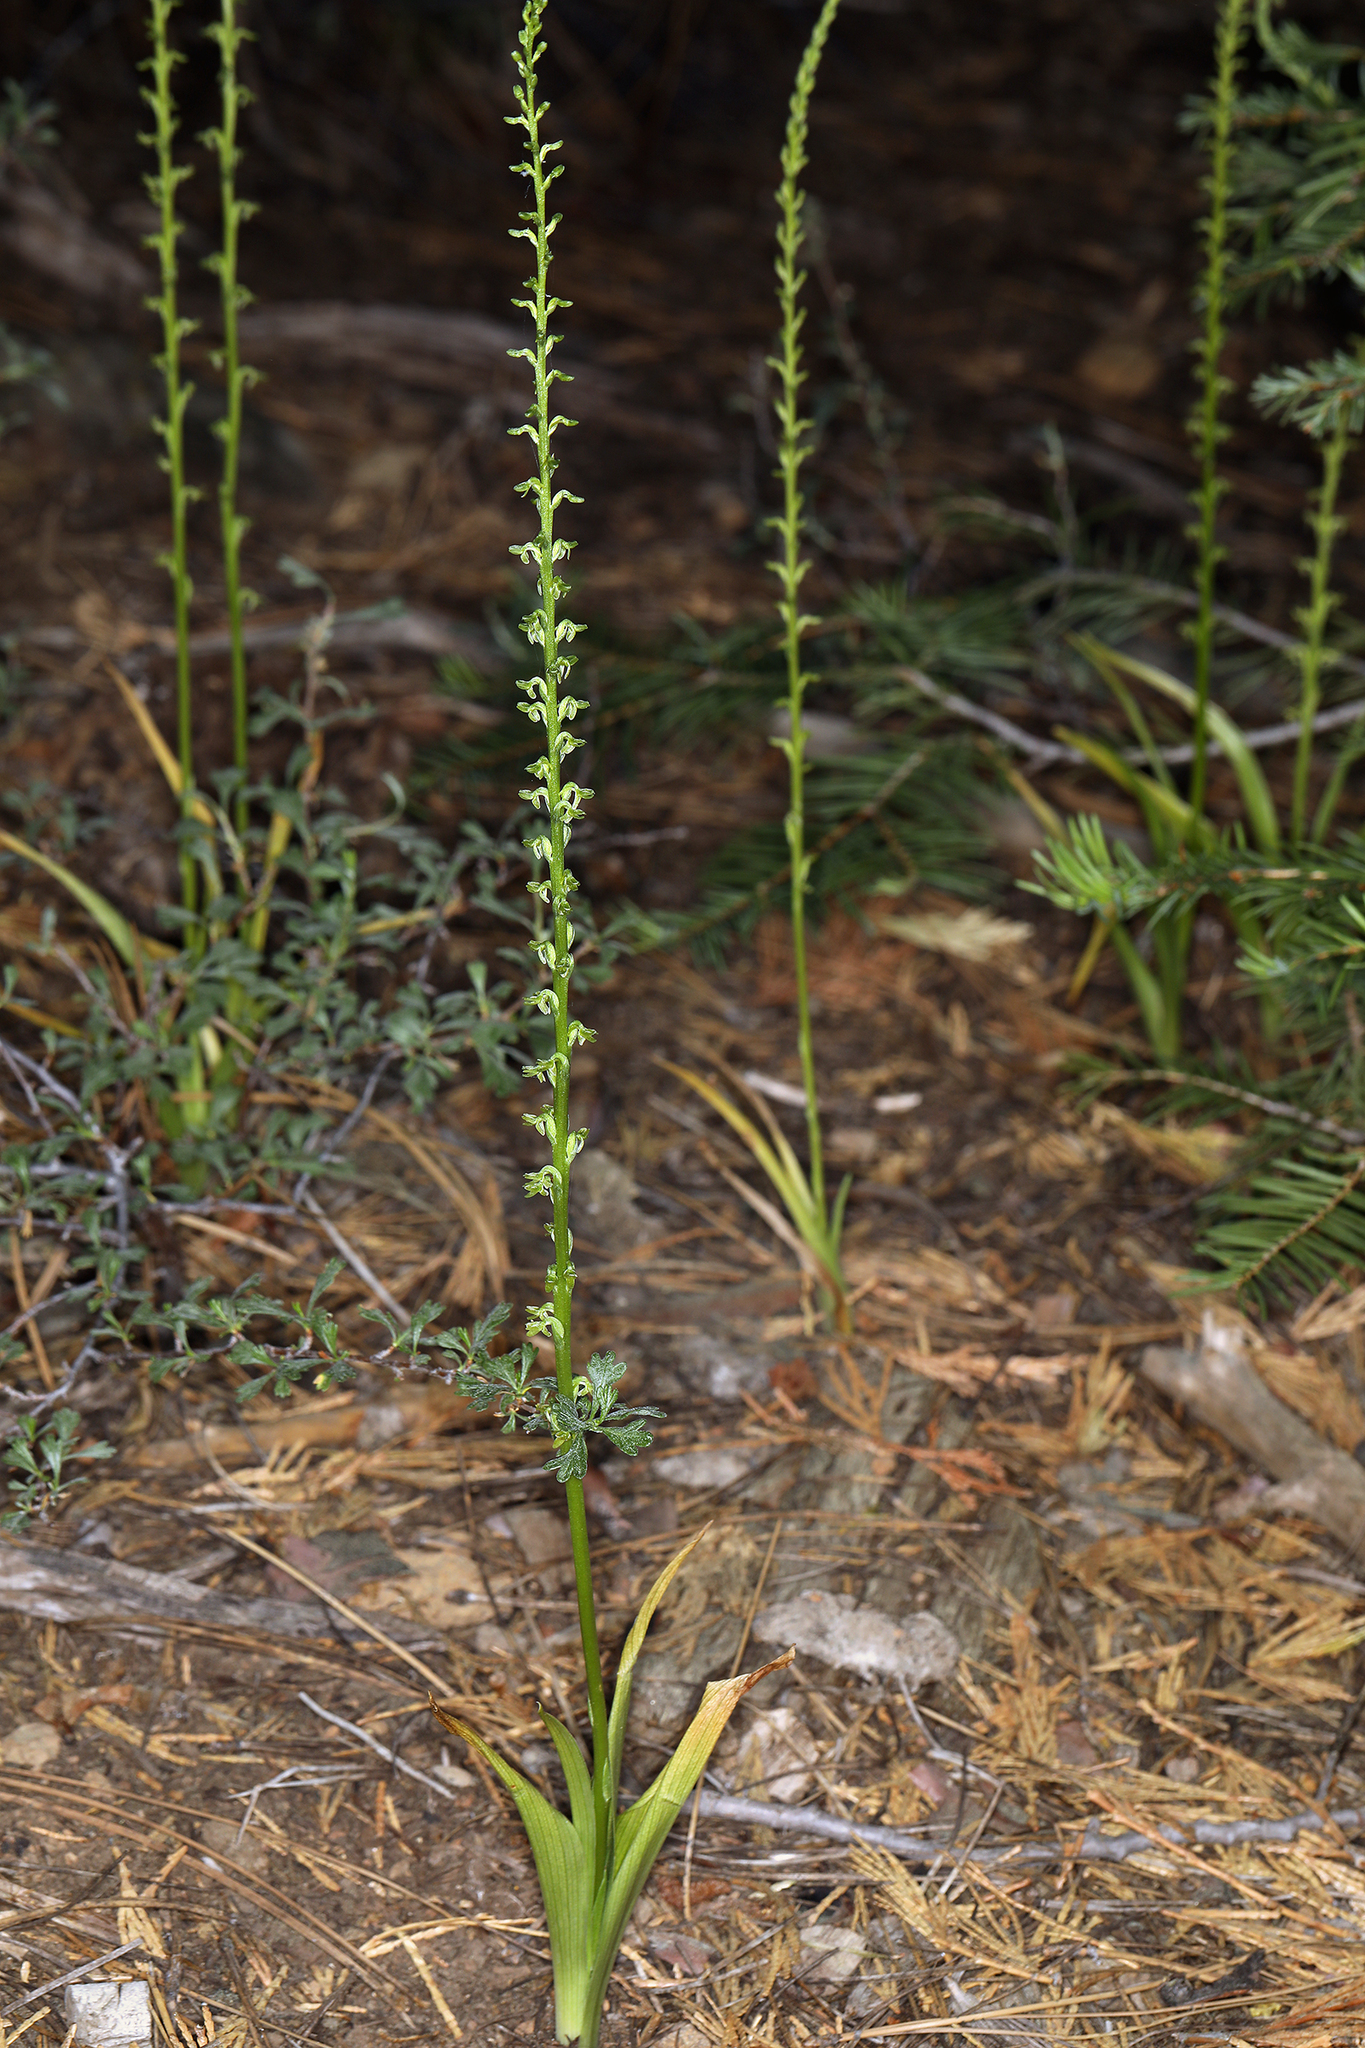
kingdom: Plantae
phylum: Tracheophyta
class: Liliopsida
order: Asparagales
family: Orchidaceae
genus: Platanthera
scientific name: Platanthera unalascensis
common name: Alaska bog orchid
